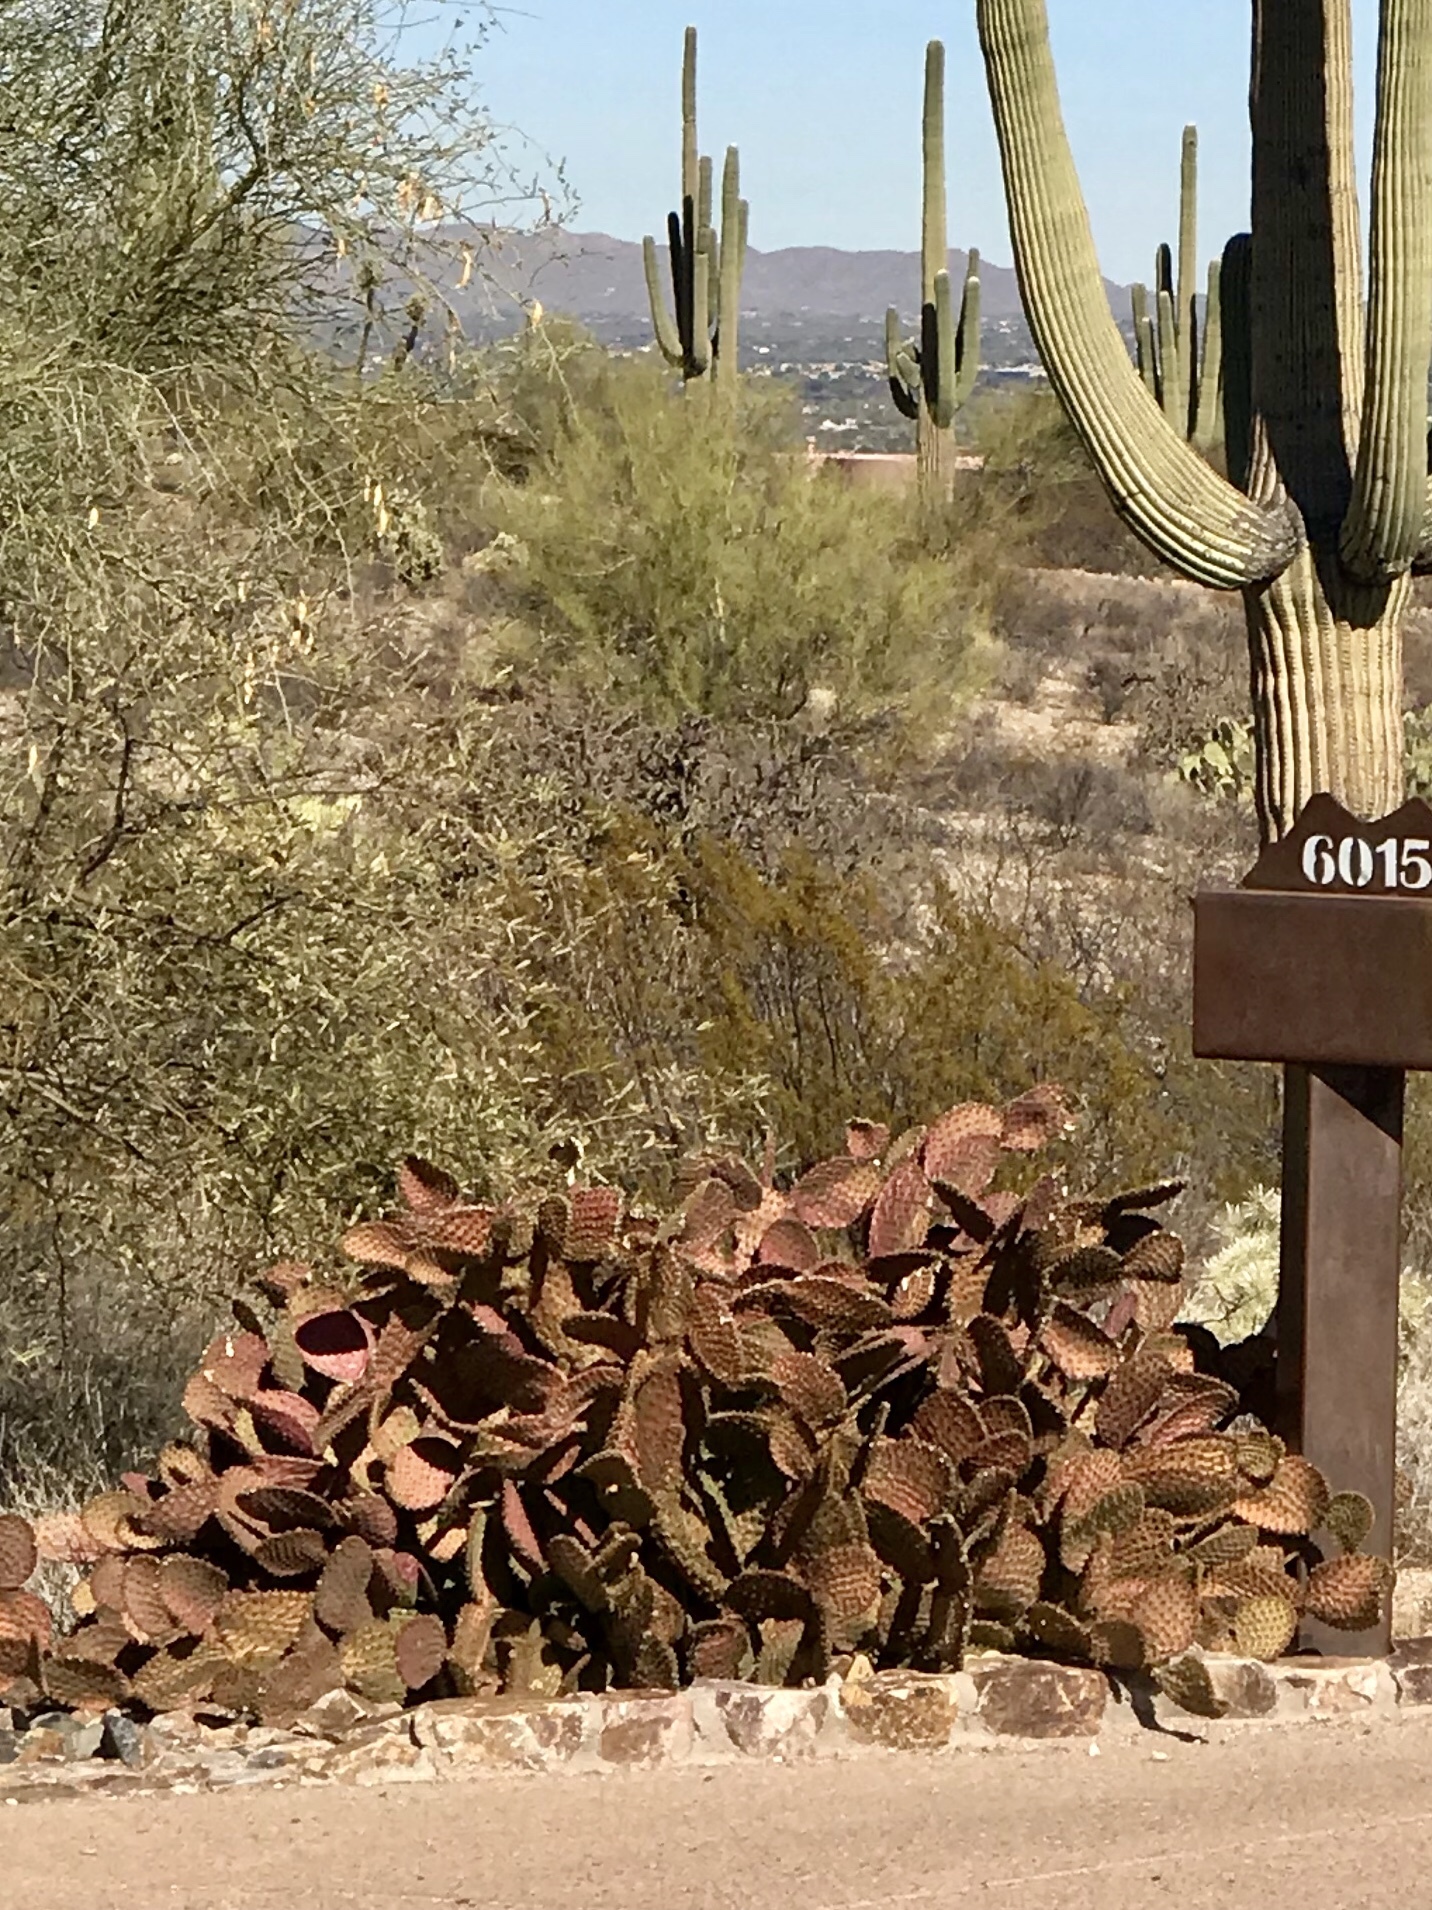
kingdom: Plantae
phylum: Tracheophyta
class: Magnoliopsida
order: Caryophyllales
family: Cactaceae
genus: Opuntia
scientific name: Opuntia microdasys
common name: Angel's-wings
